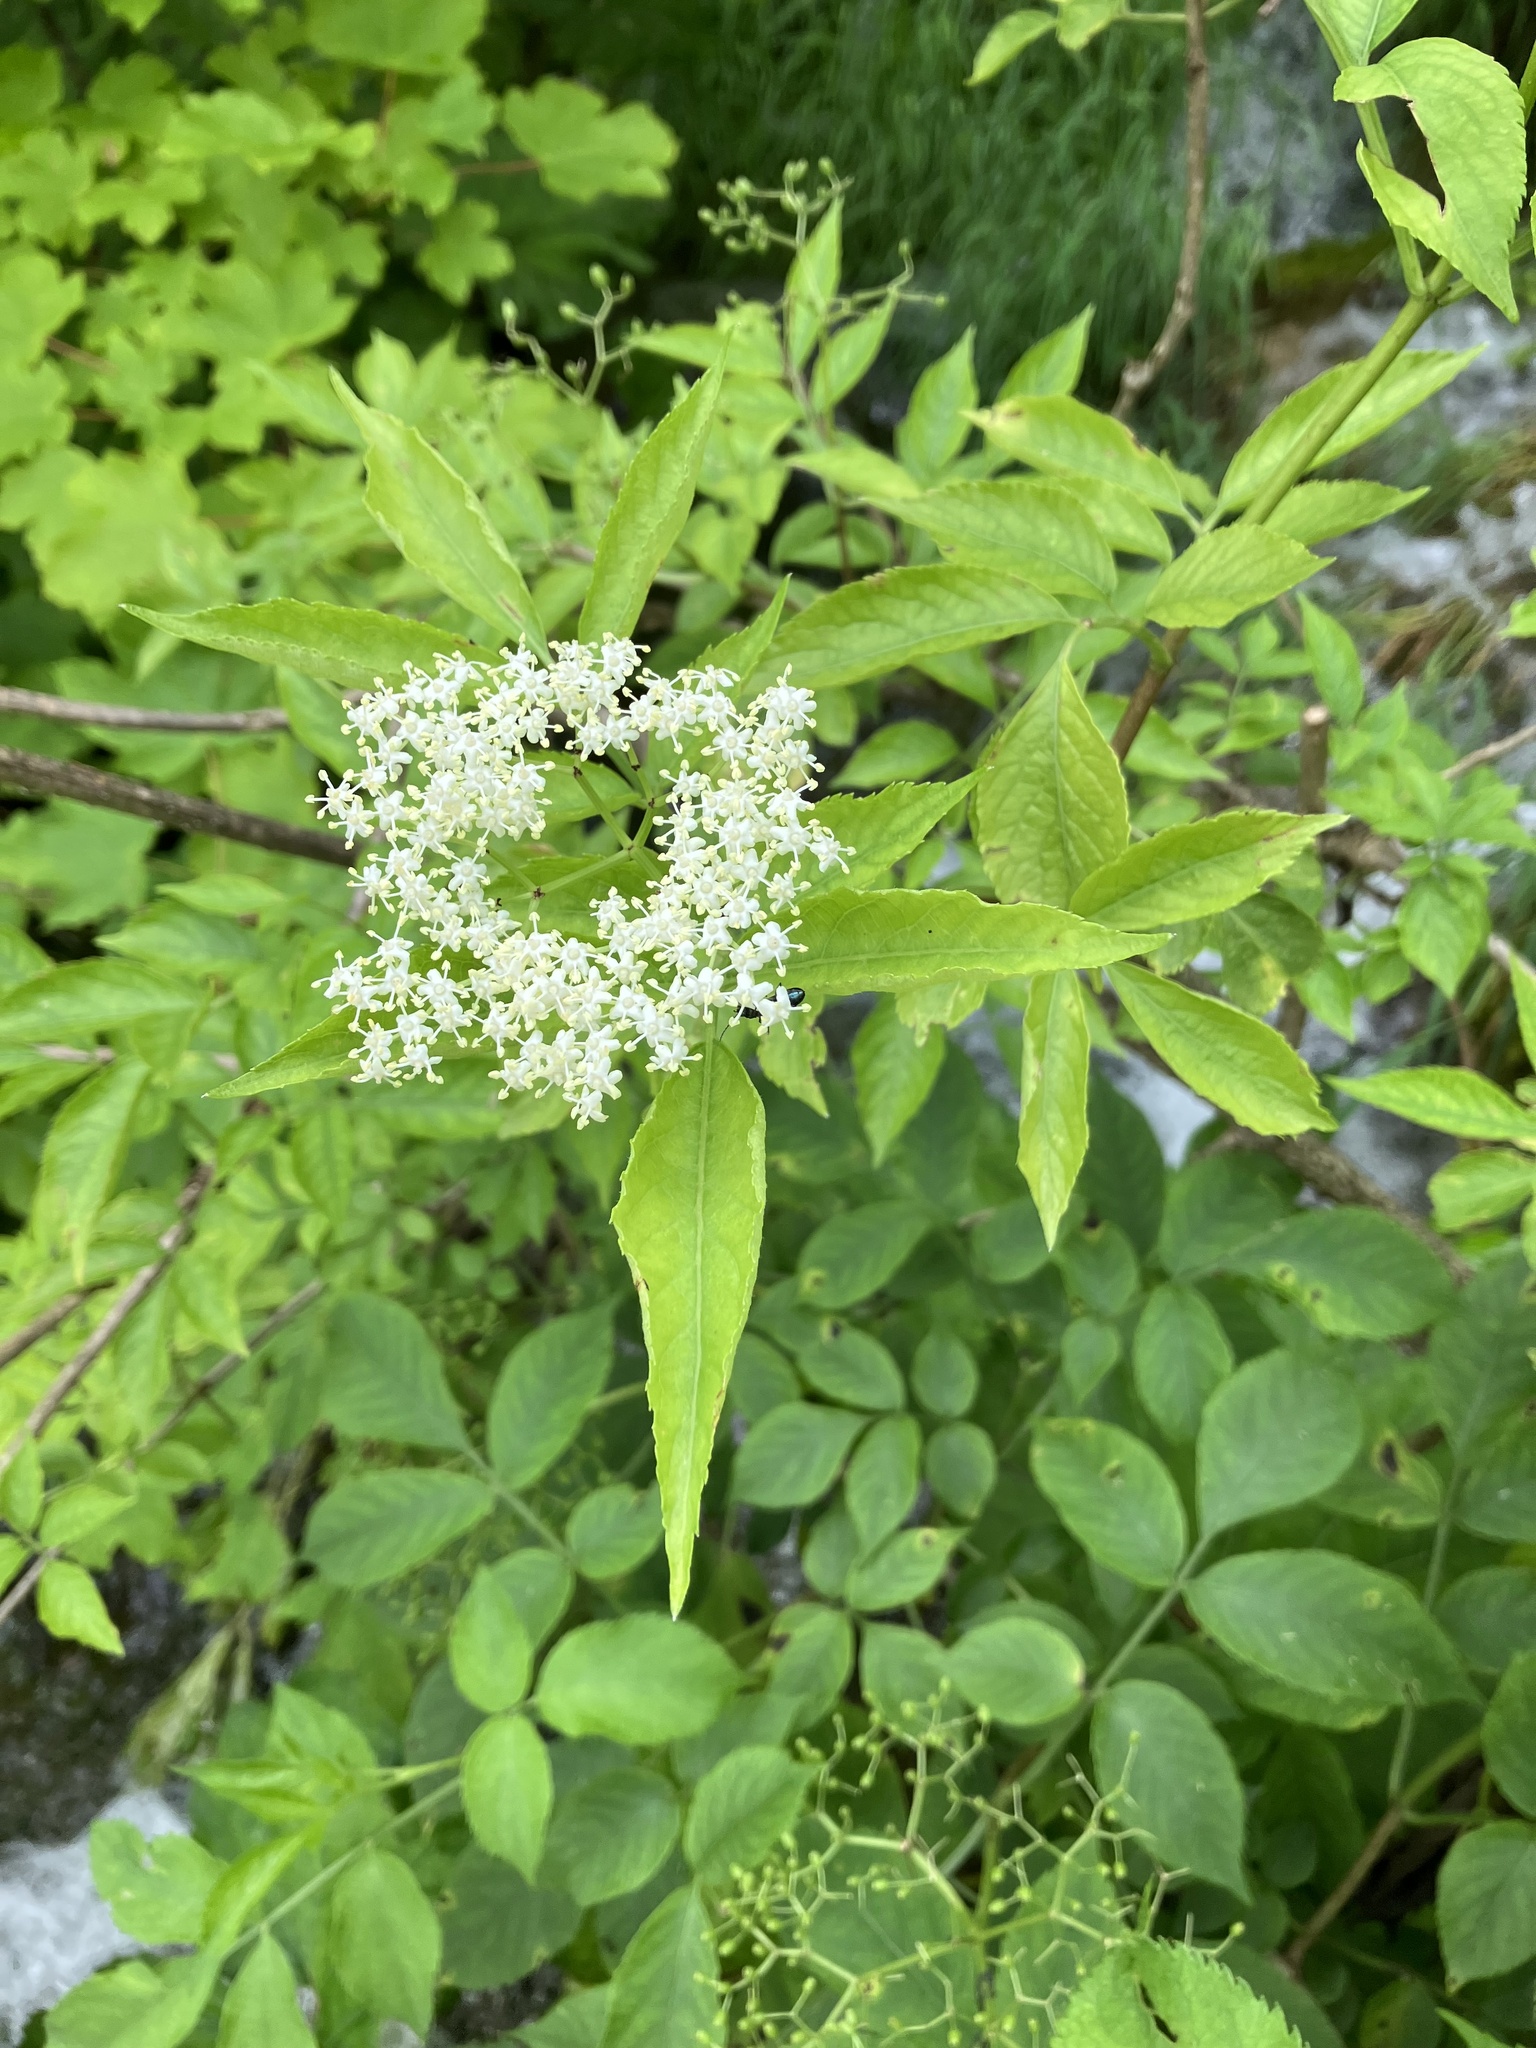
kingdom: Plantae
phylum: Tracheophyta
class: Magnoliopsida
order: Dipsacales
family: Viburnaceae
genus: Sambucus
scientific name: Sambucus nigra
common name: Elder
